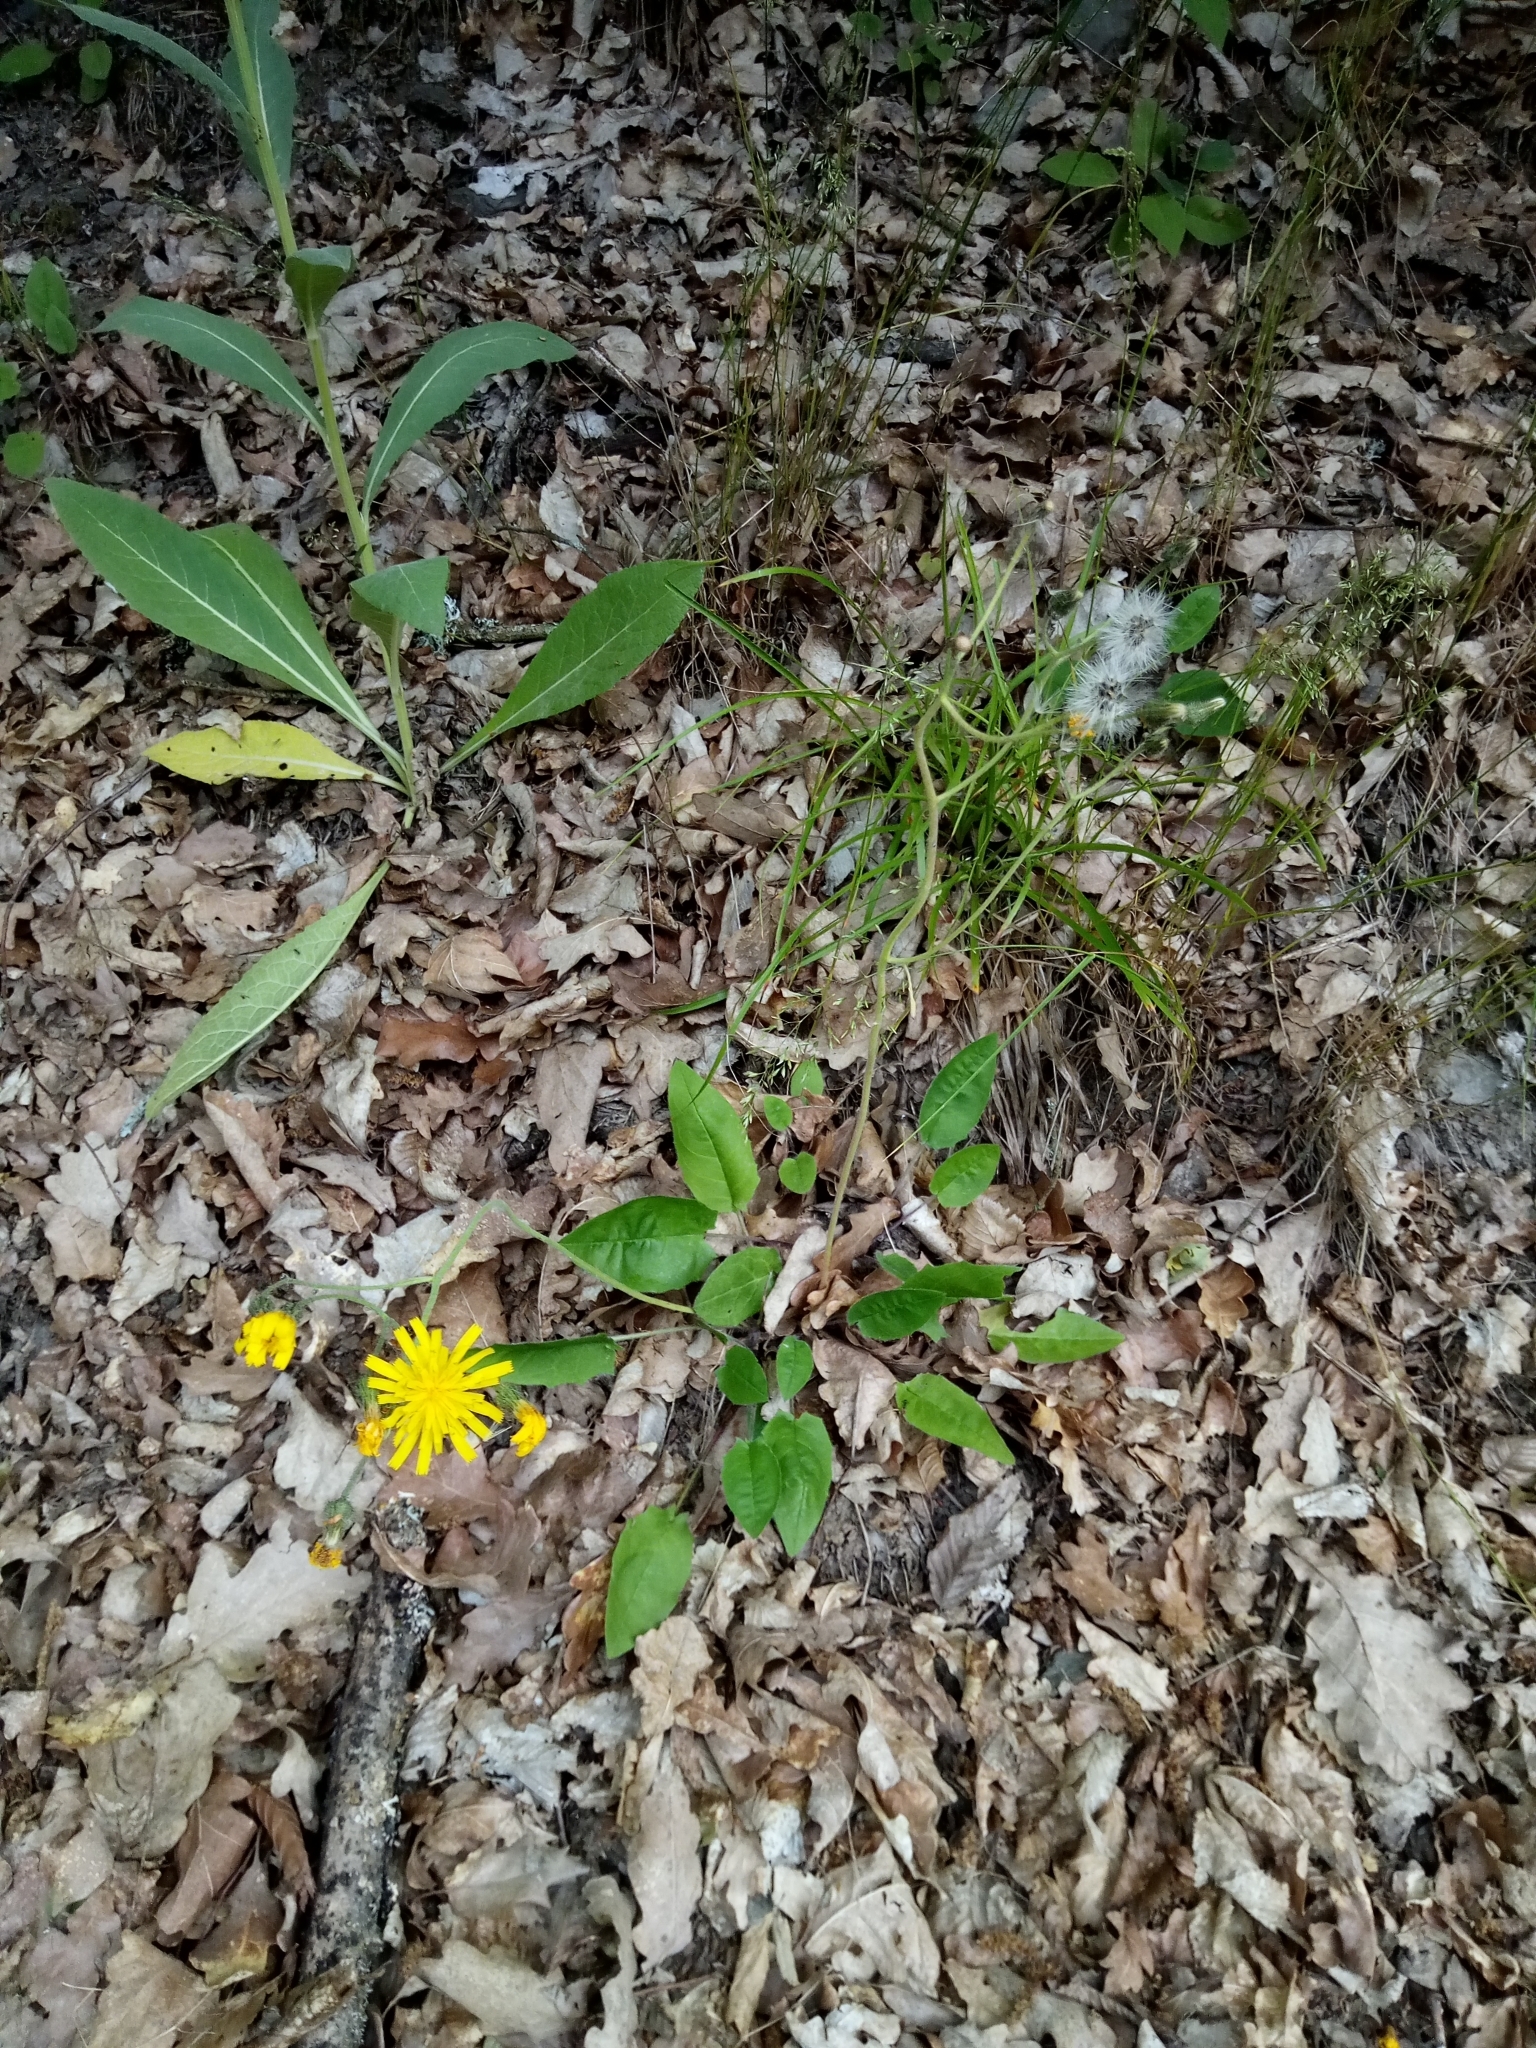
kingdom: Plantae
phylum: Tracheophyta
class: Magnoliopsida
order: Asterales
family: Asteraceae
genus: Hieracium
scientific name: Hieracium murorum
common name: Wall hawkweed
